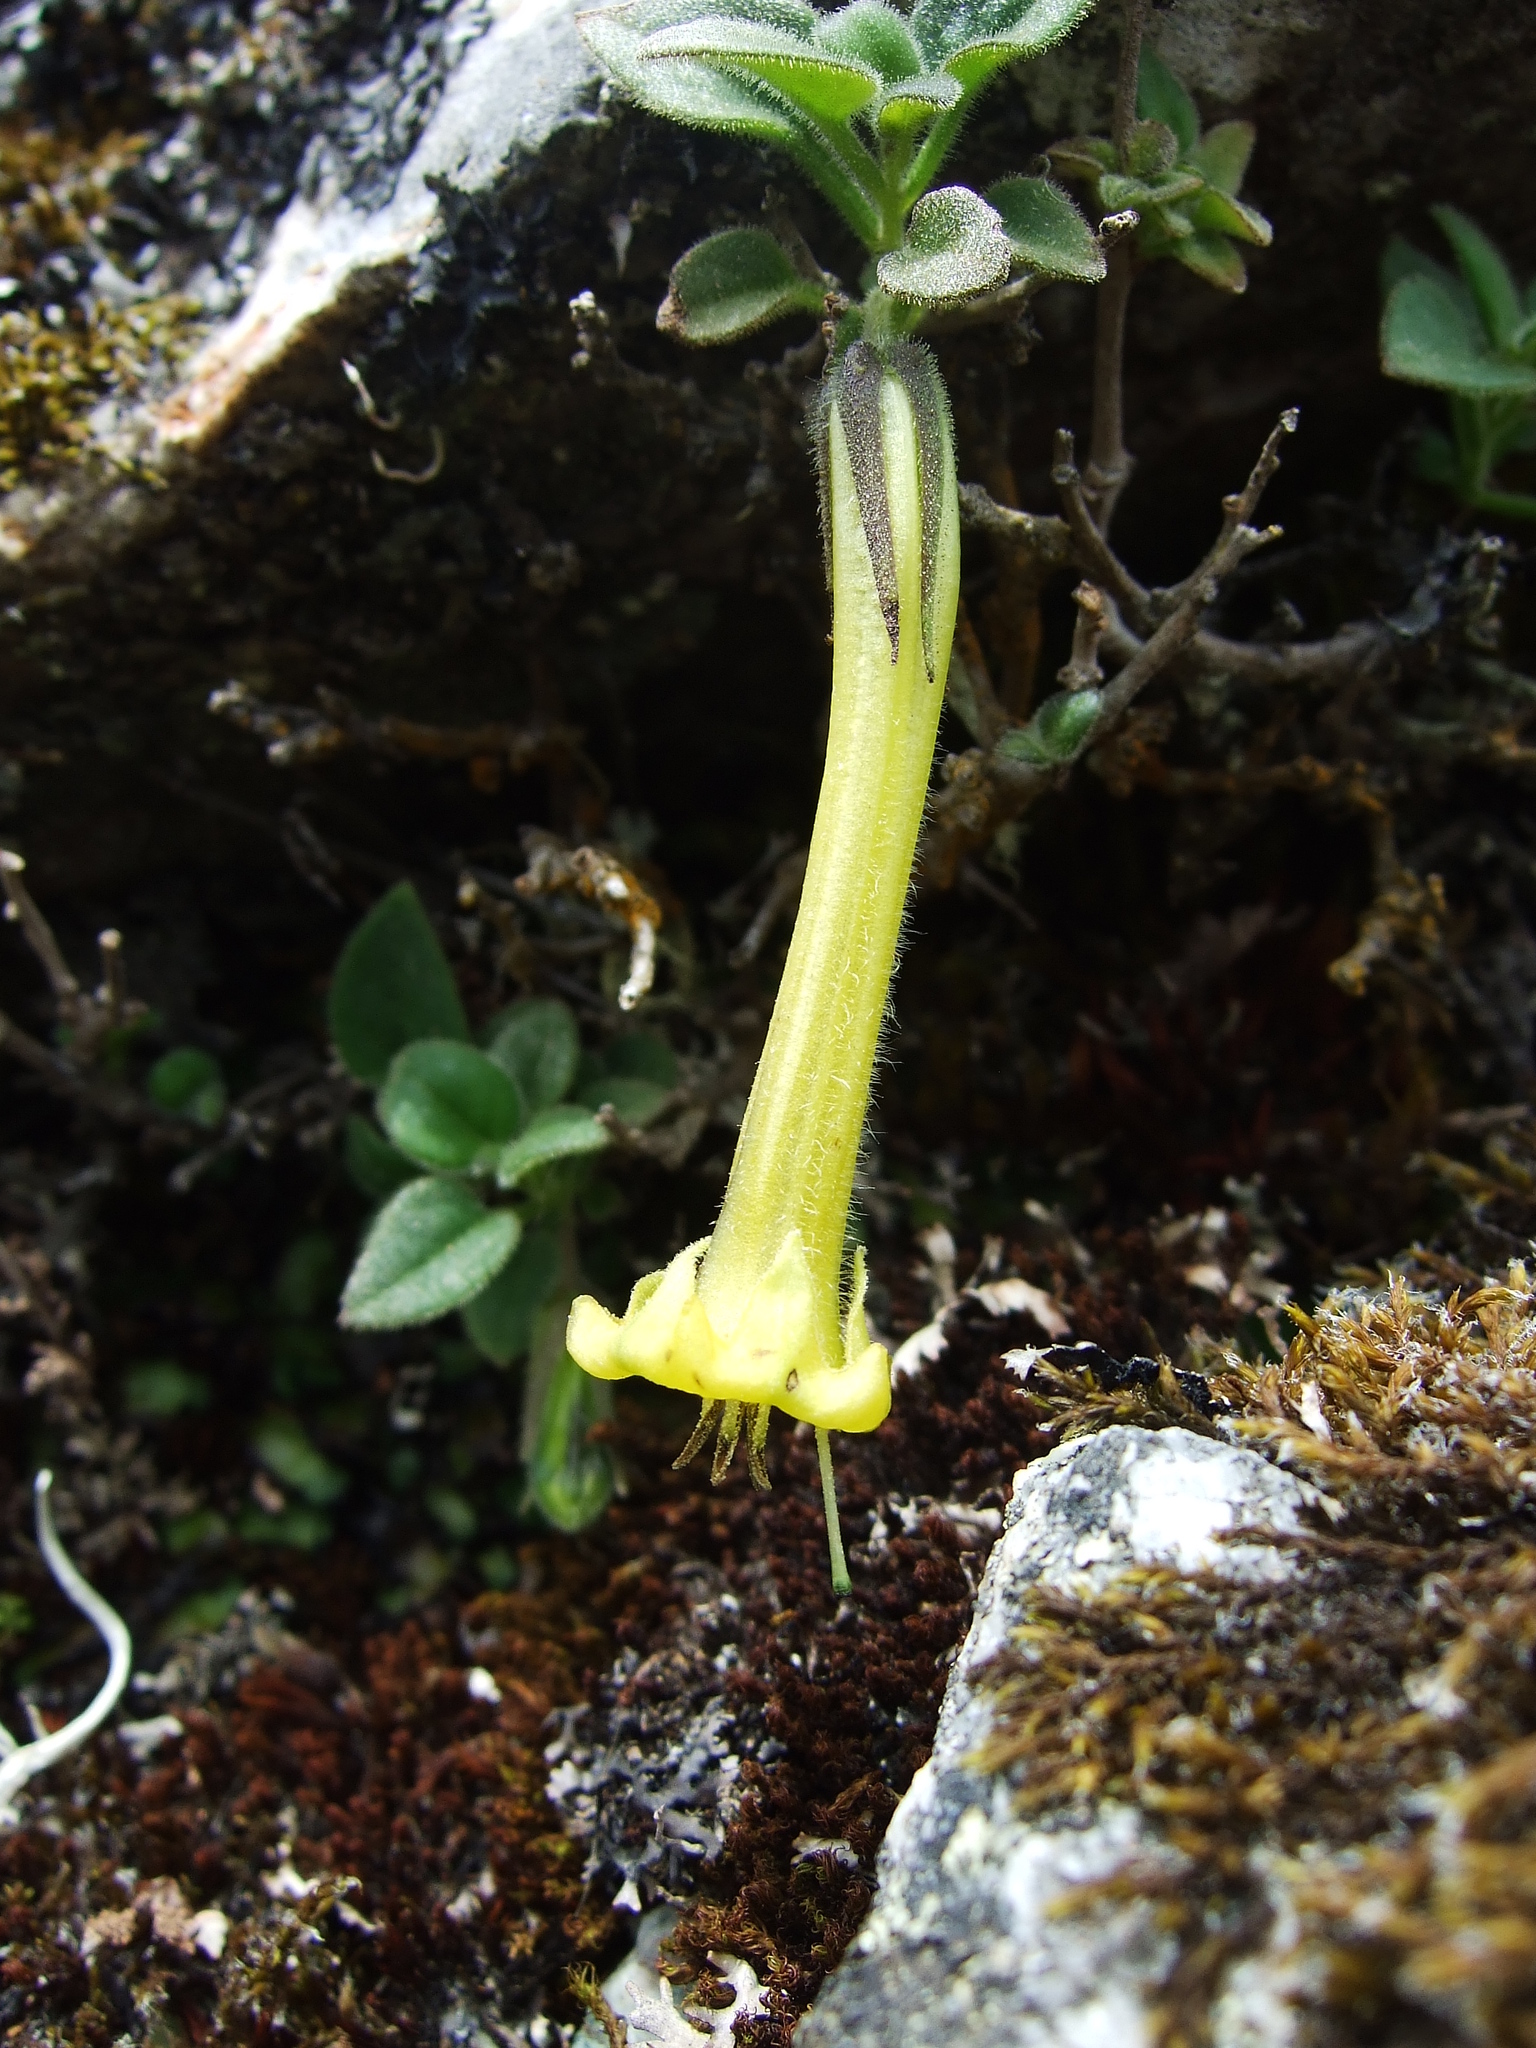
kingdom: Plantae
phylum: Tracheophyta
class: Magnoliopsida
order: Solanales
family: Solanaceae
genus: Salpichroa
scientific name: Salpichroa glandulosa
